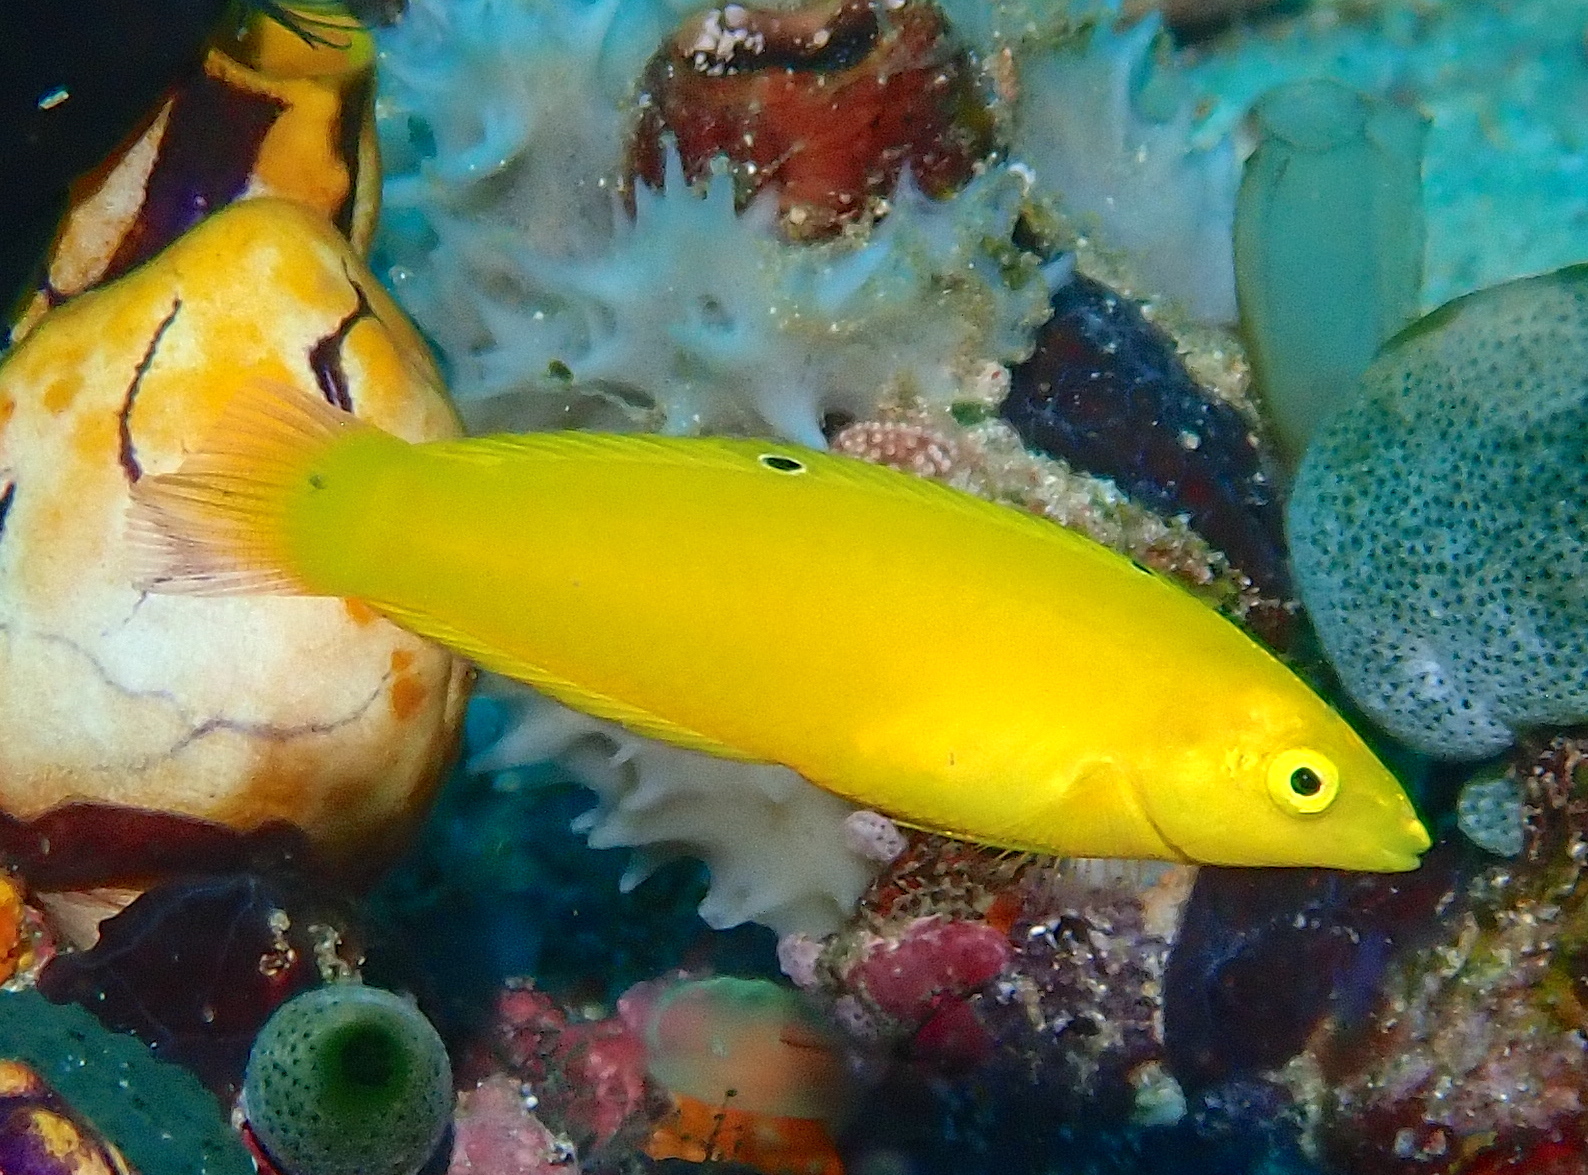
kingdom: Animalia
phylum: Chordata
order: Perciformes
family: Labridae
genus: Halichoeres
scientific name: Halichoeres chrysus
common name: Canary wrasse
